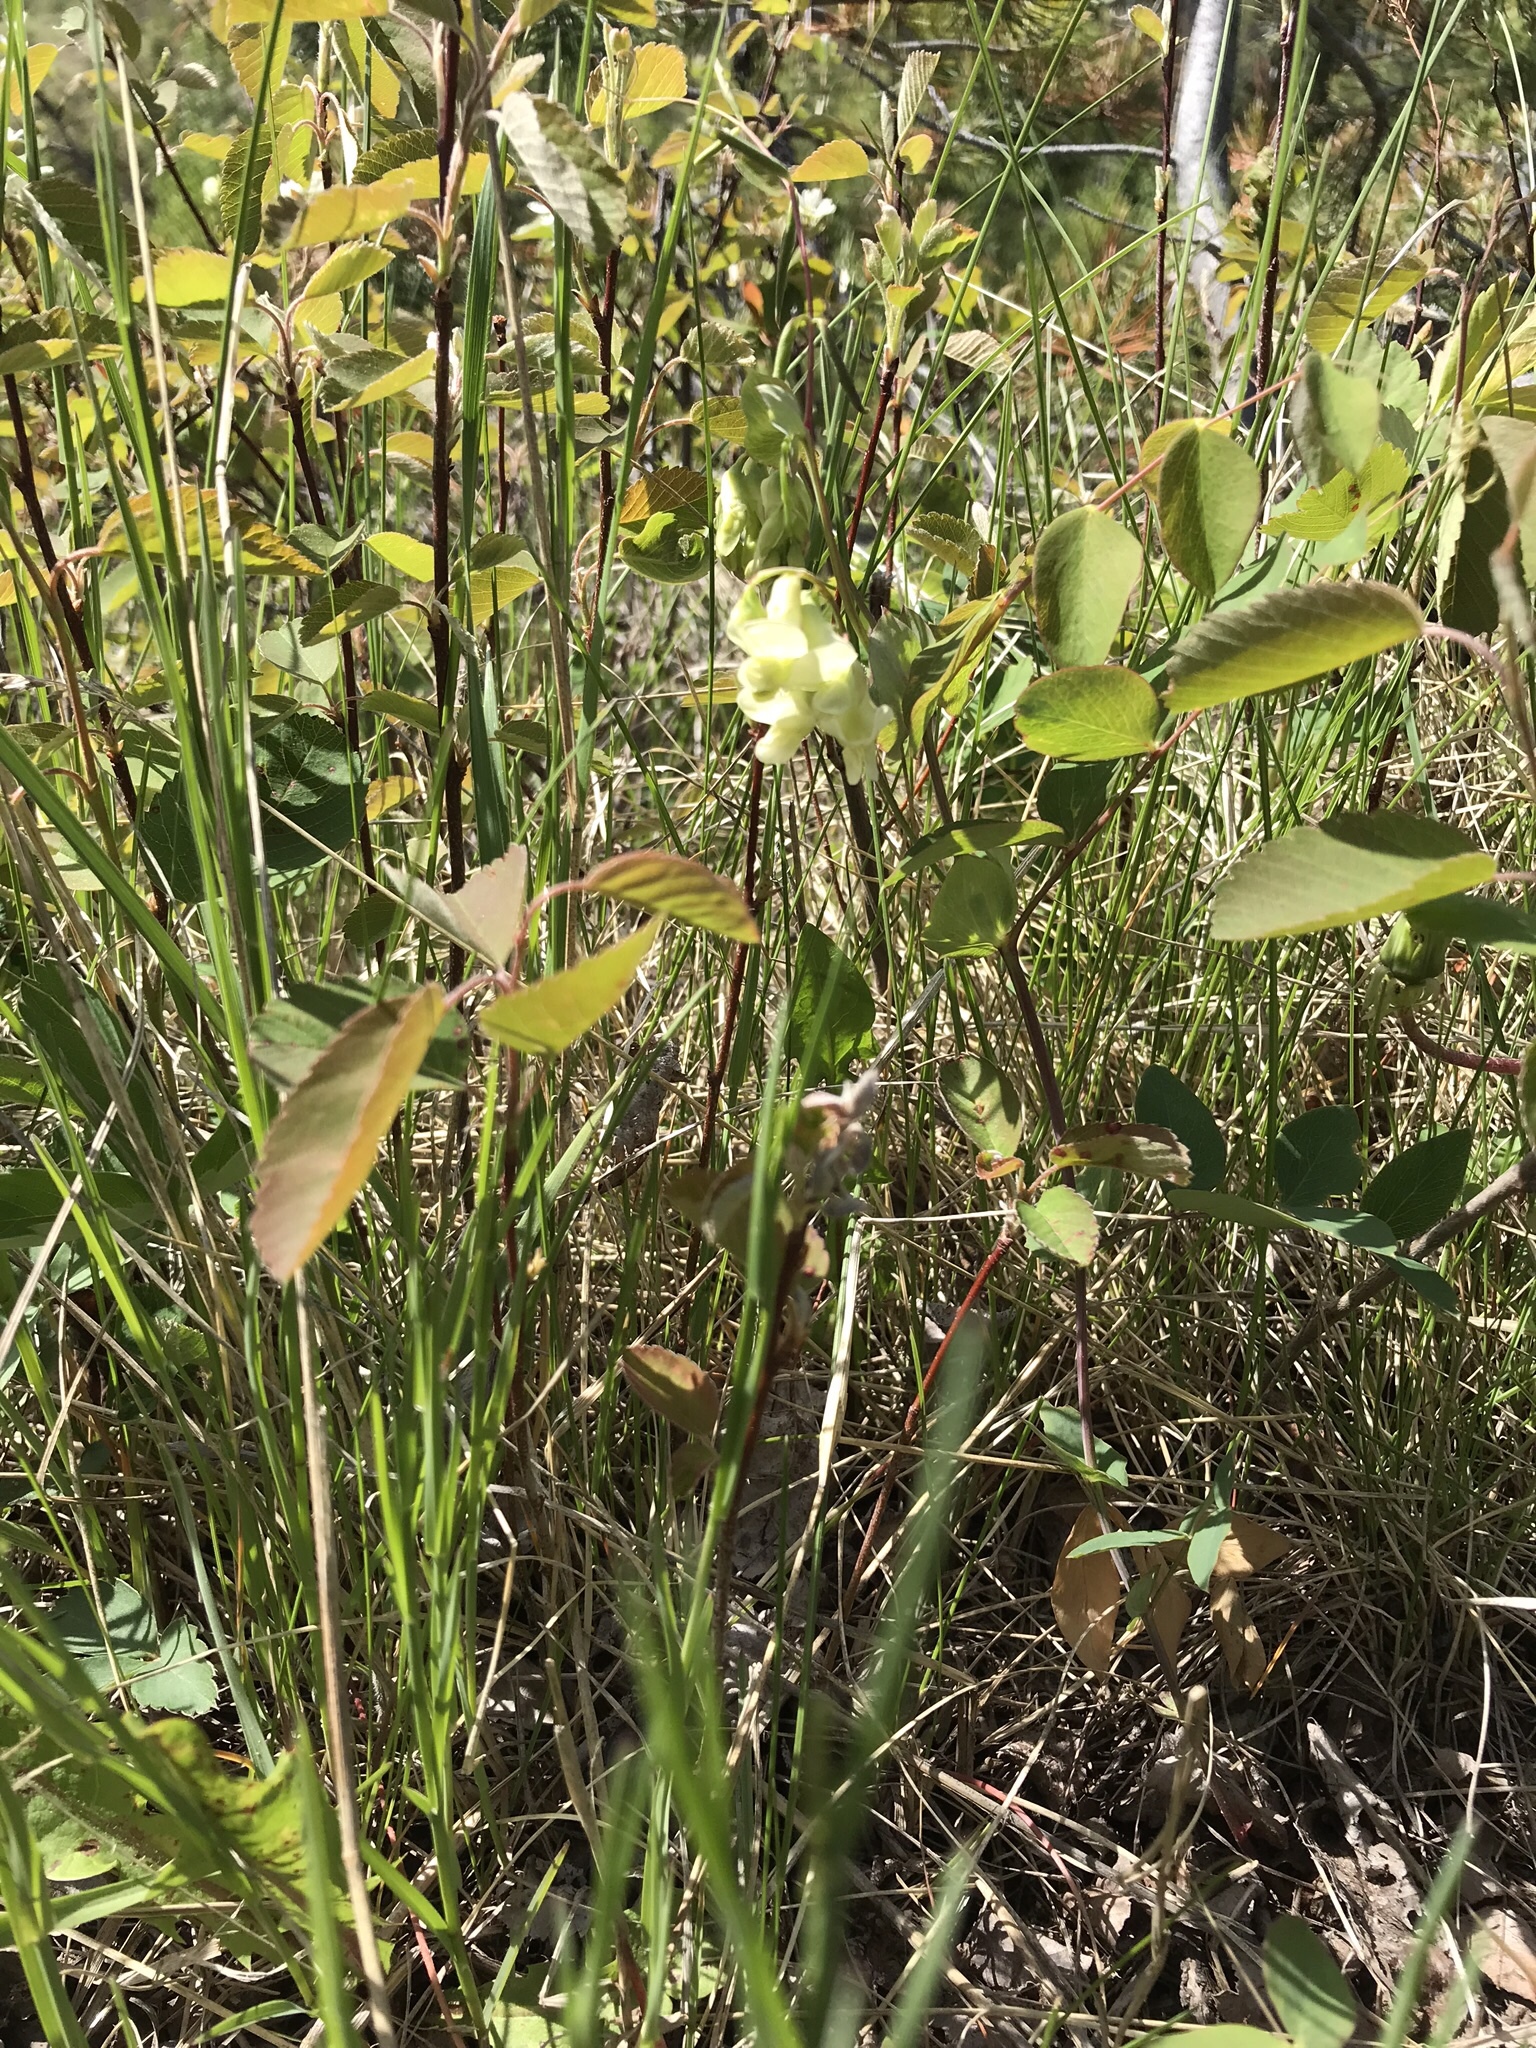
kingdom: Plantae
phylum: Tracheophyta
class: Magnoliopsida
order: Fabales
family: Fabaceae
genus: Lathyrus
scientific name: Lathyrus ochroleucus
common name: Pale vetchling
